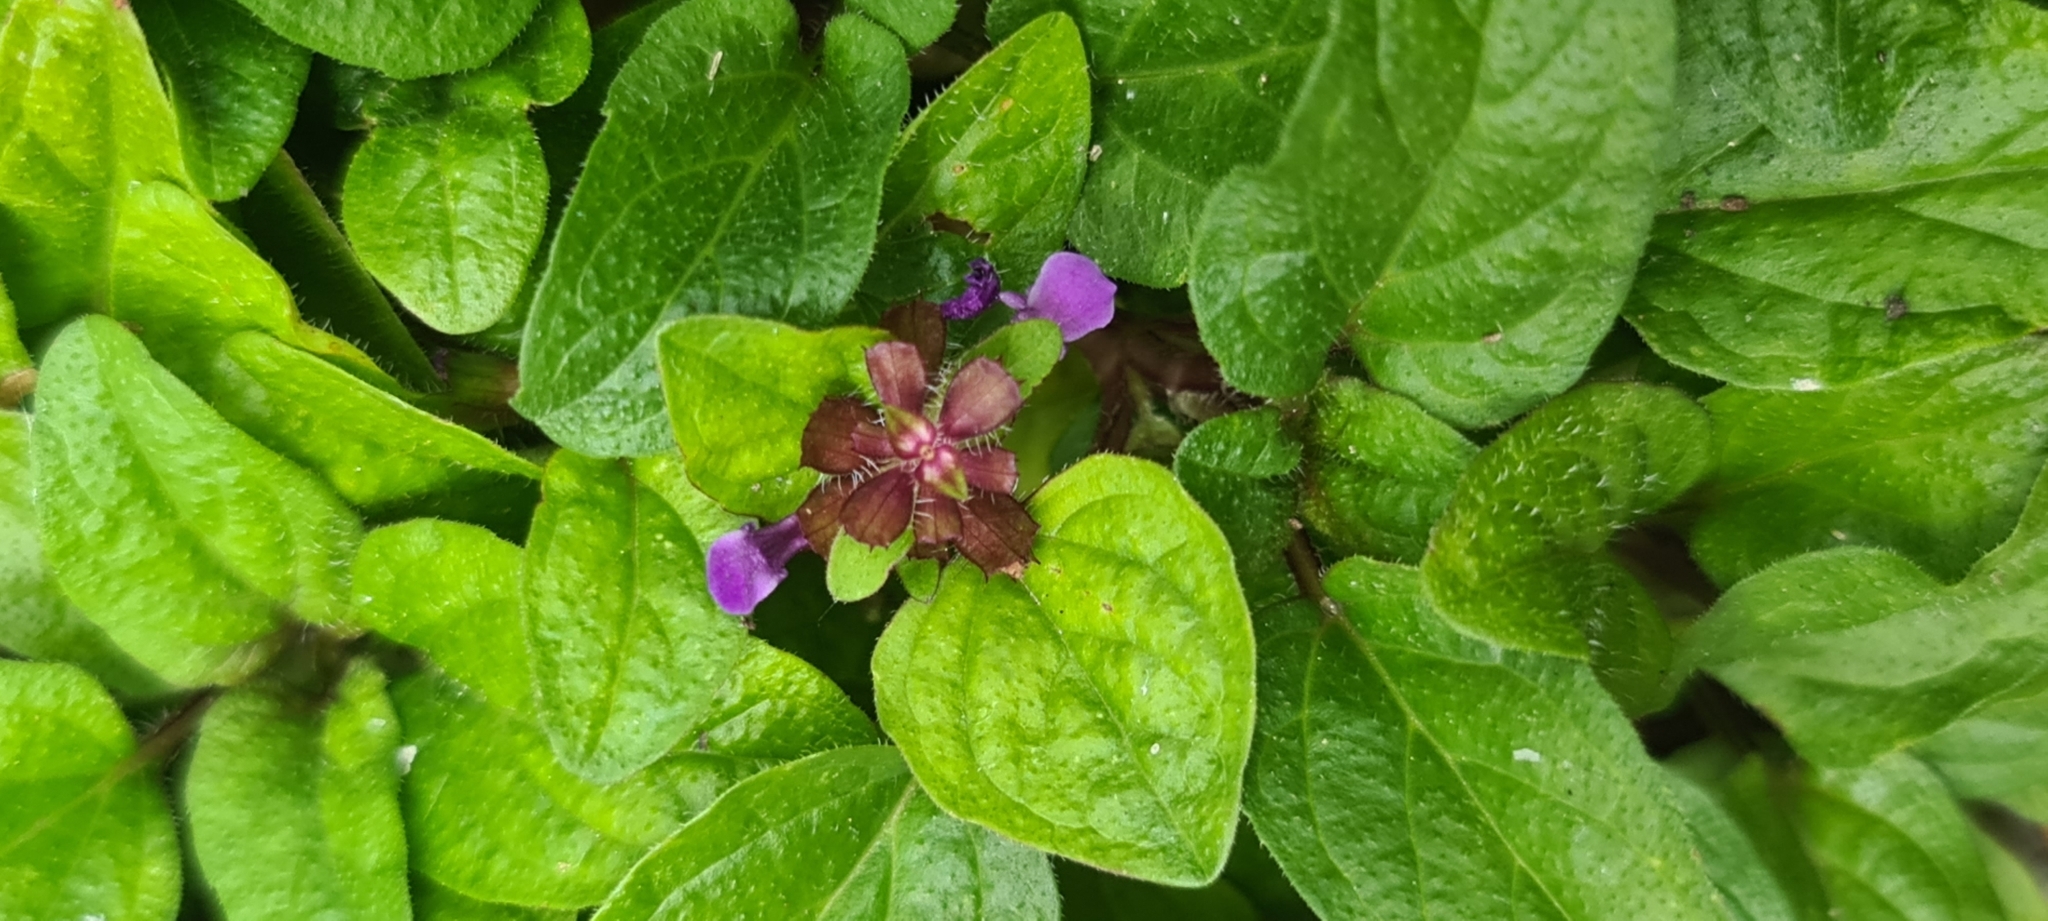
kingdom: Plantae
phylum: Tracheophyta
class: Magnoliopsida
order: Lamiales
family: Lamiaceae
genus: Prunella
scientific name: Prunella vulgaris
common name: Heal-all
